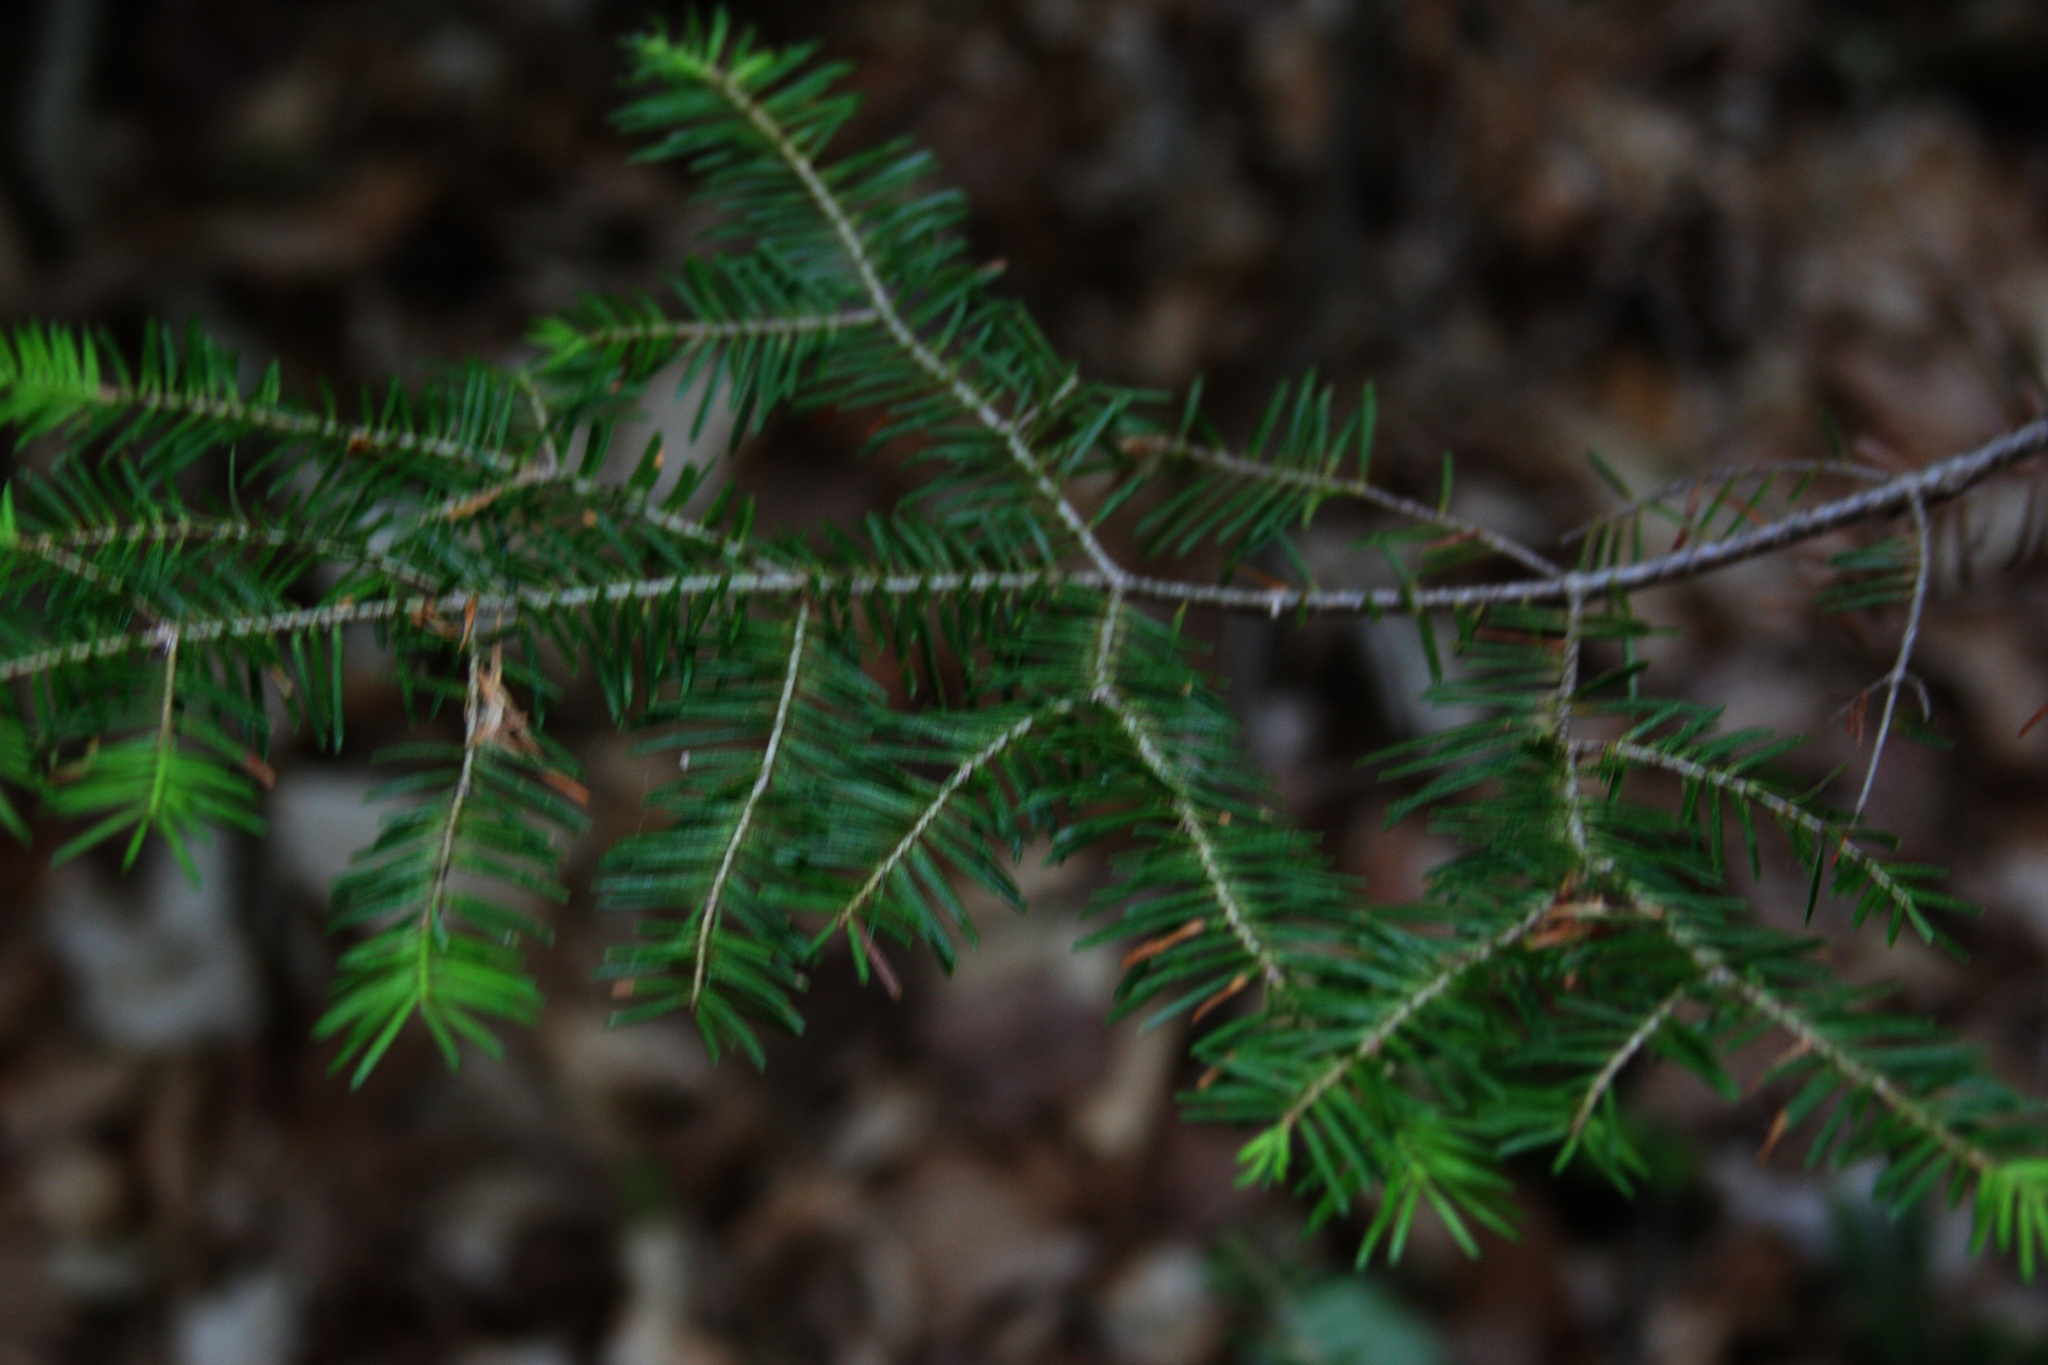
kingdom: Plantae
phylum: Tracheophyta
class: Pinopsida
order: Pinales
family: Pinaceae
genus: Tsuga
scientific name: Tsuga canadensis
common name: Eastern hemlock
